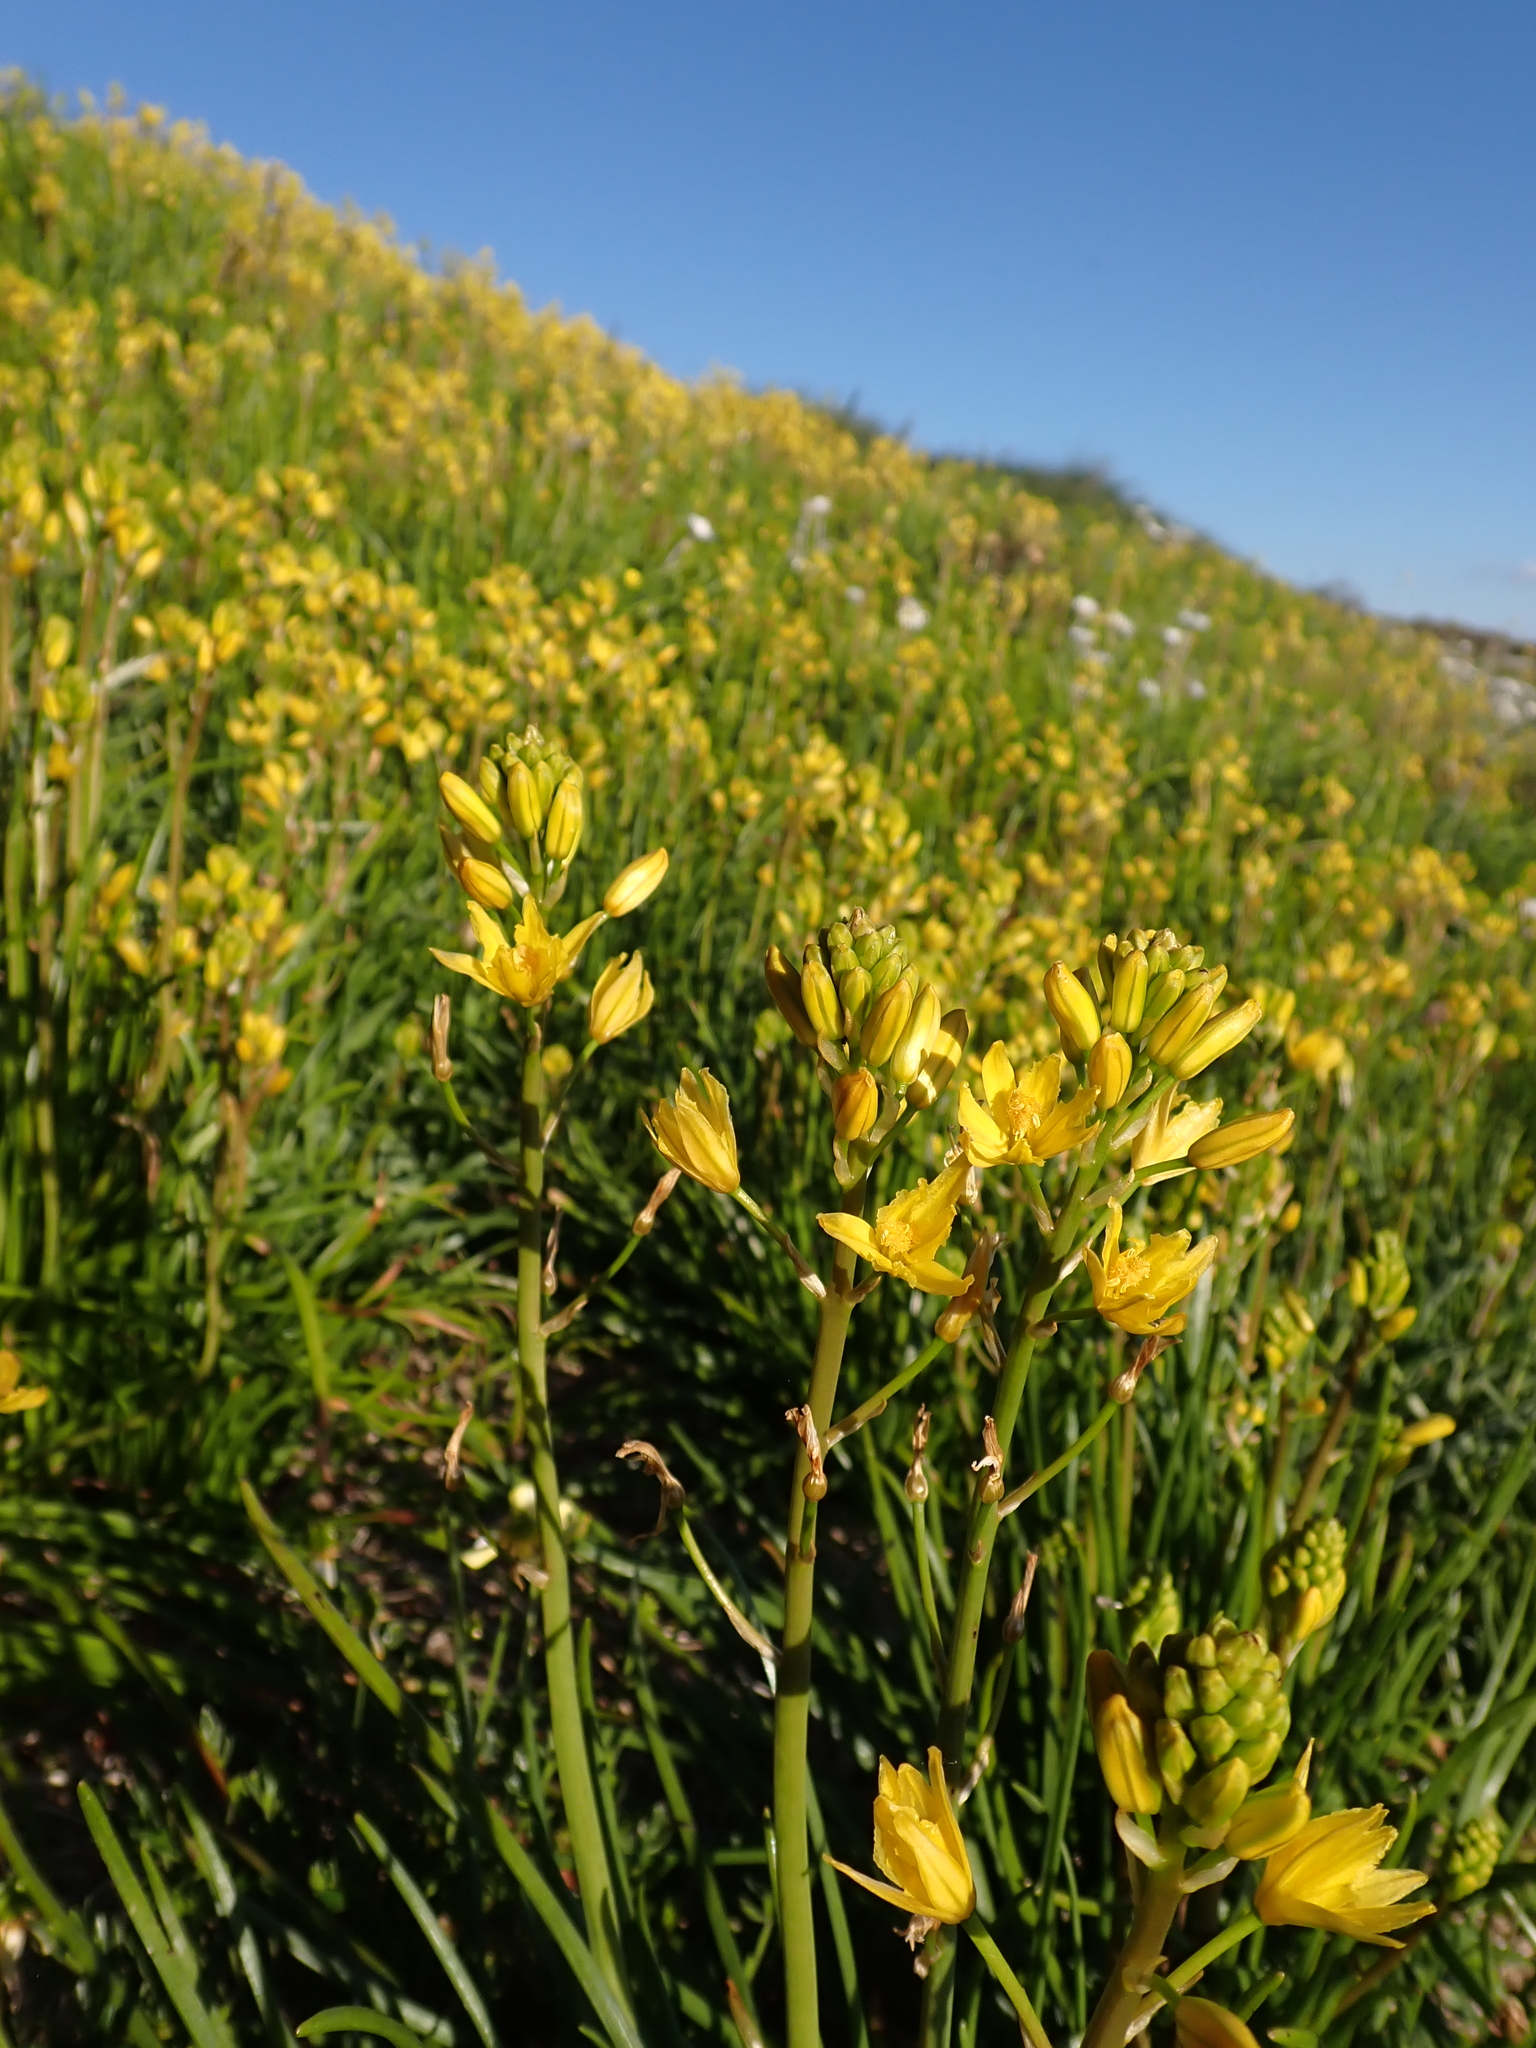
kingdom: Plantae
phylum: Tracheophyta
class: Liliopsida
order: Asparagales
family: Asphodelaceae
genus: Bulbine
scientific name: Bulbine bulbosa
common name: Golden-lily
